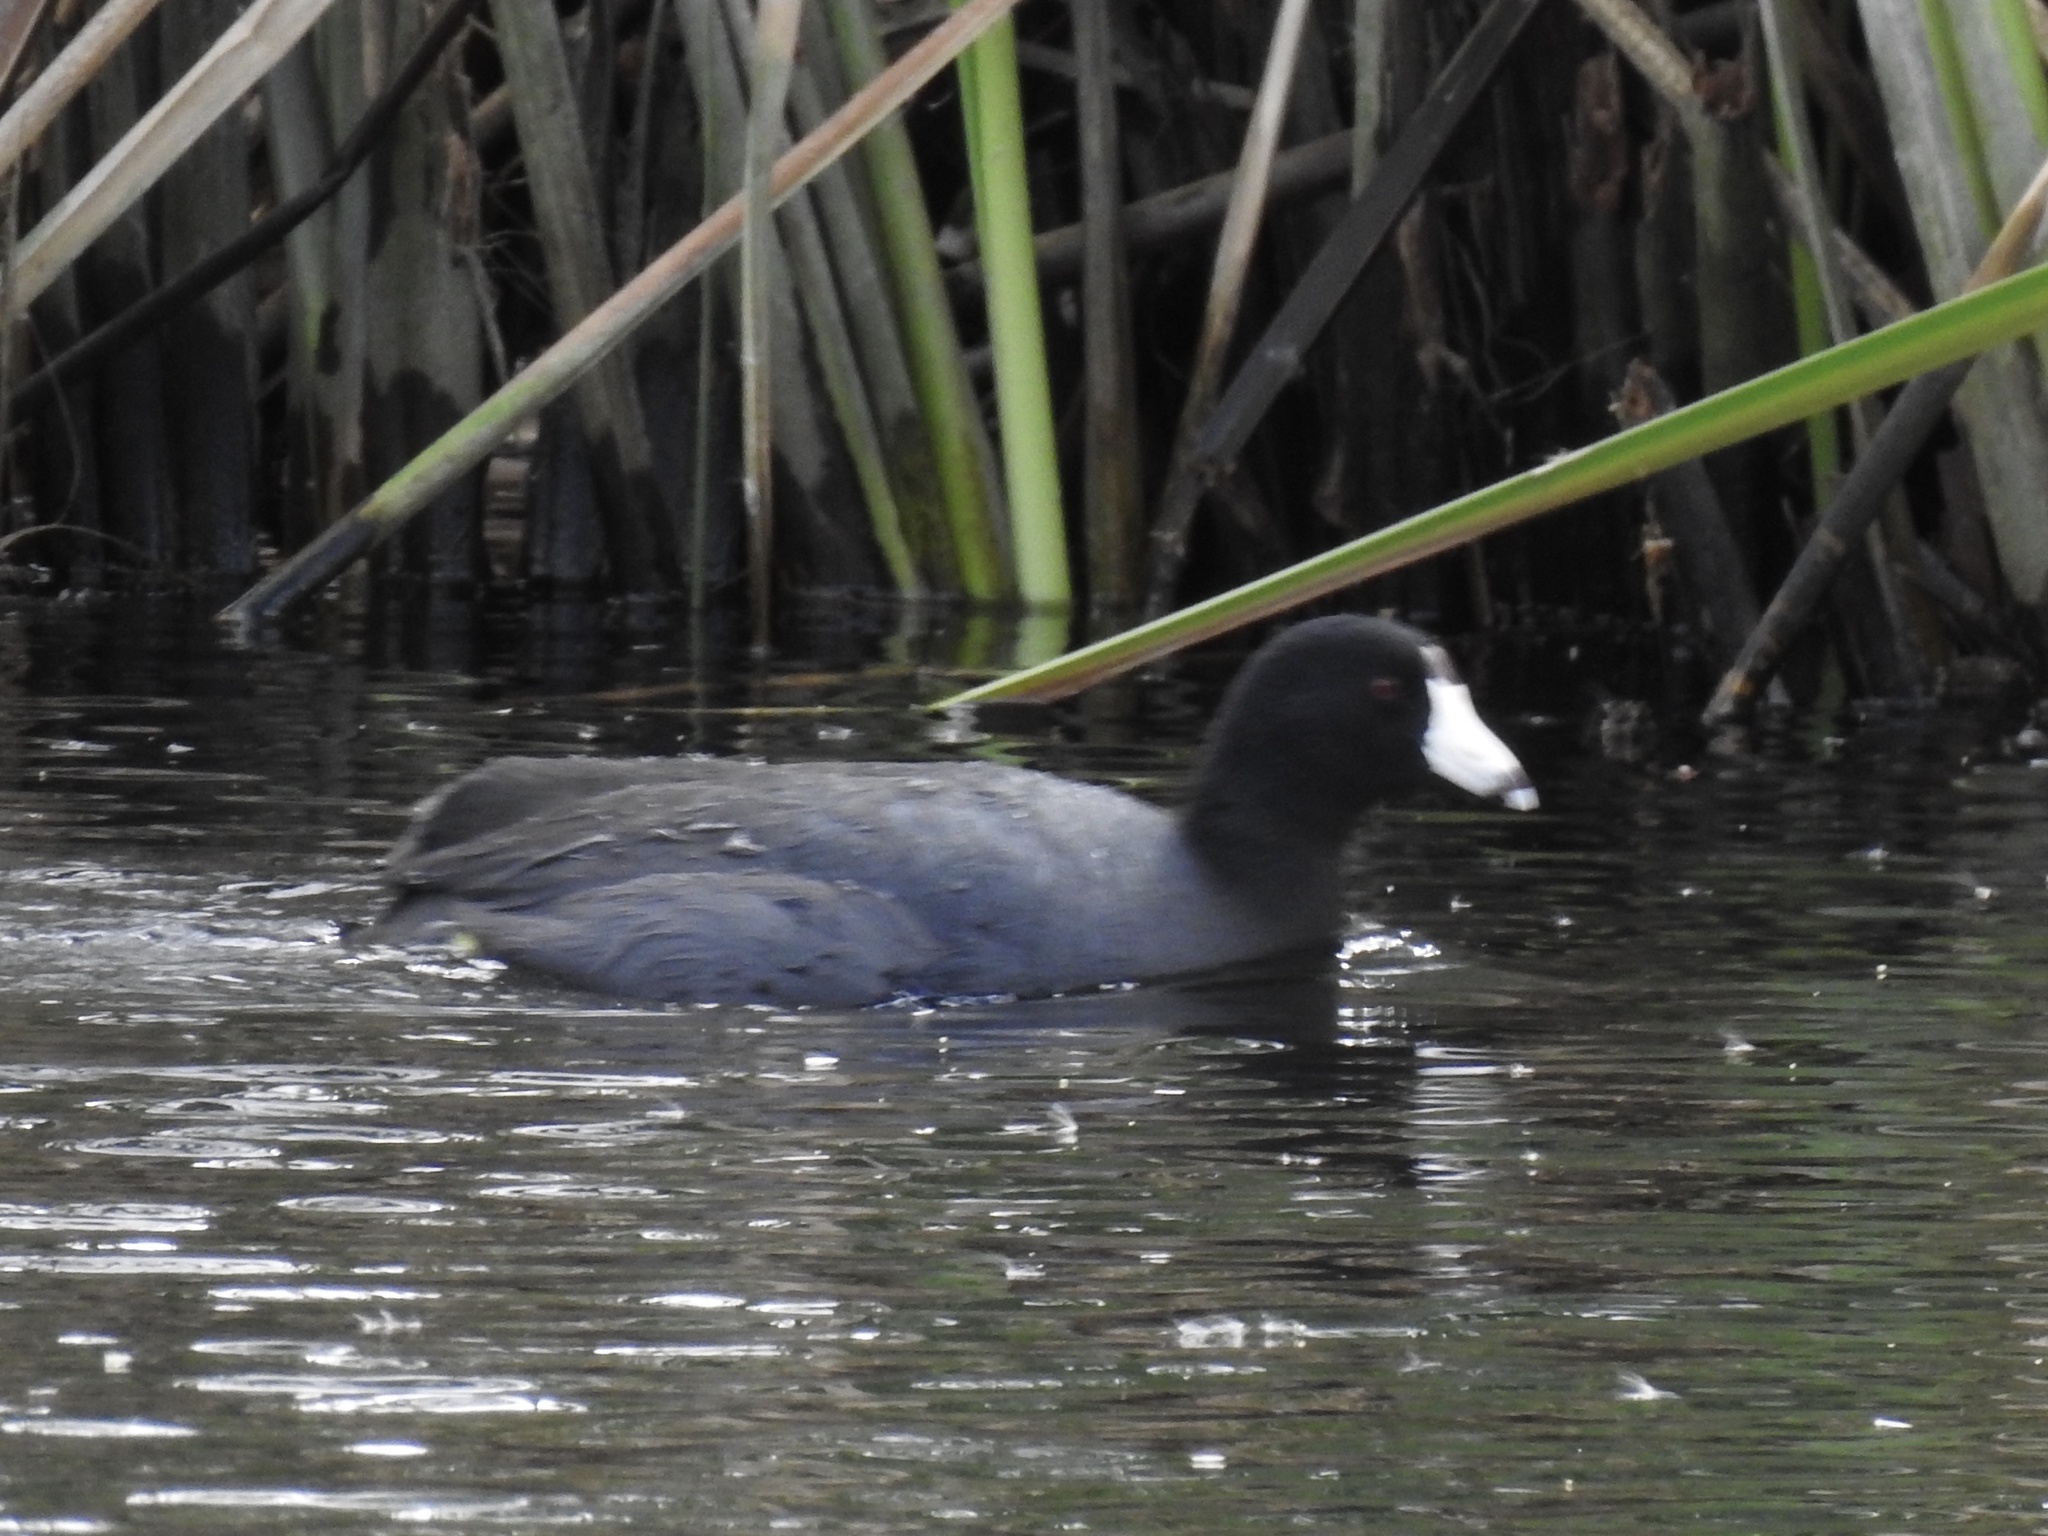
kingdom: Animalia
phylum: Chordata
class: Aves
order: Gruiformes
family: Rallidae
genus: Fulica
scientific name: Fulica americana
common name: American coot
